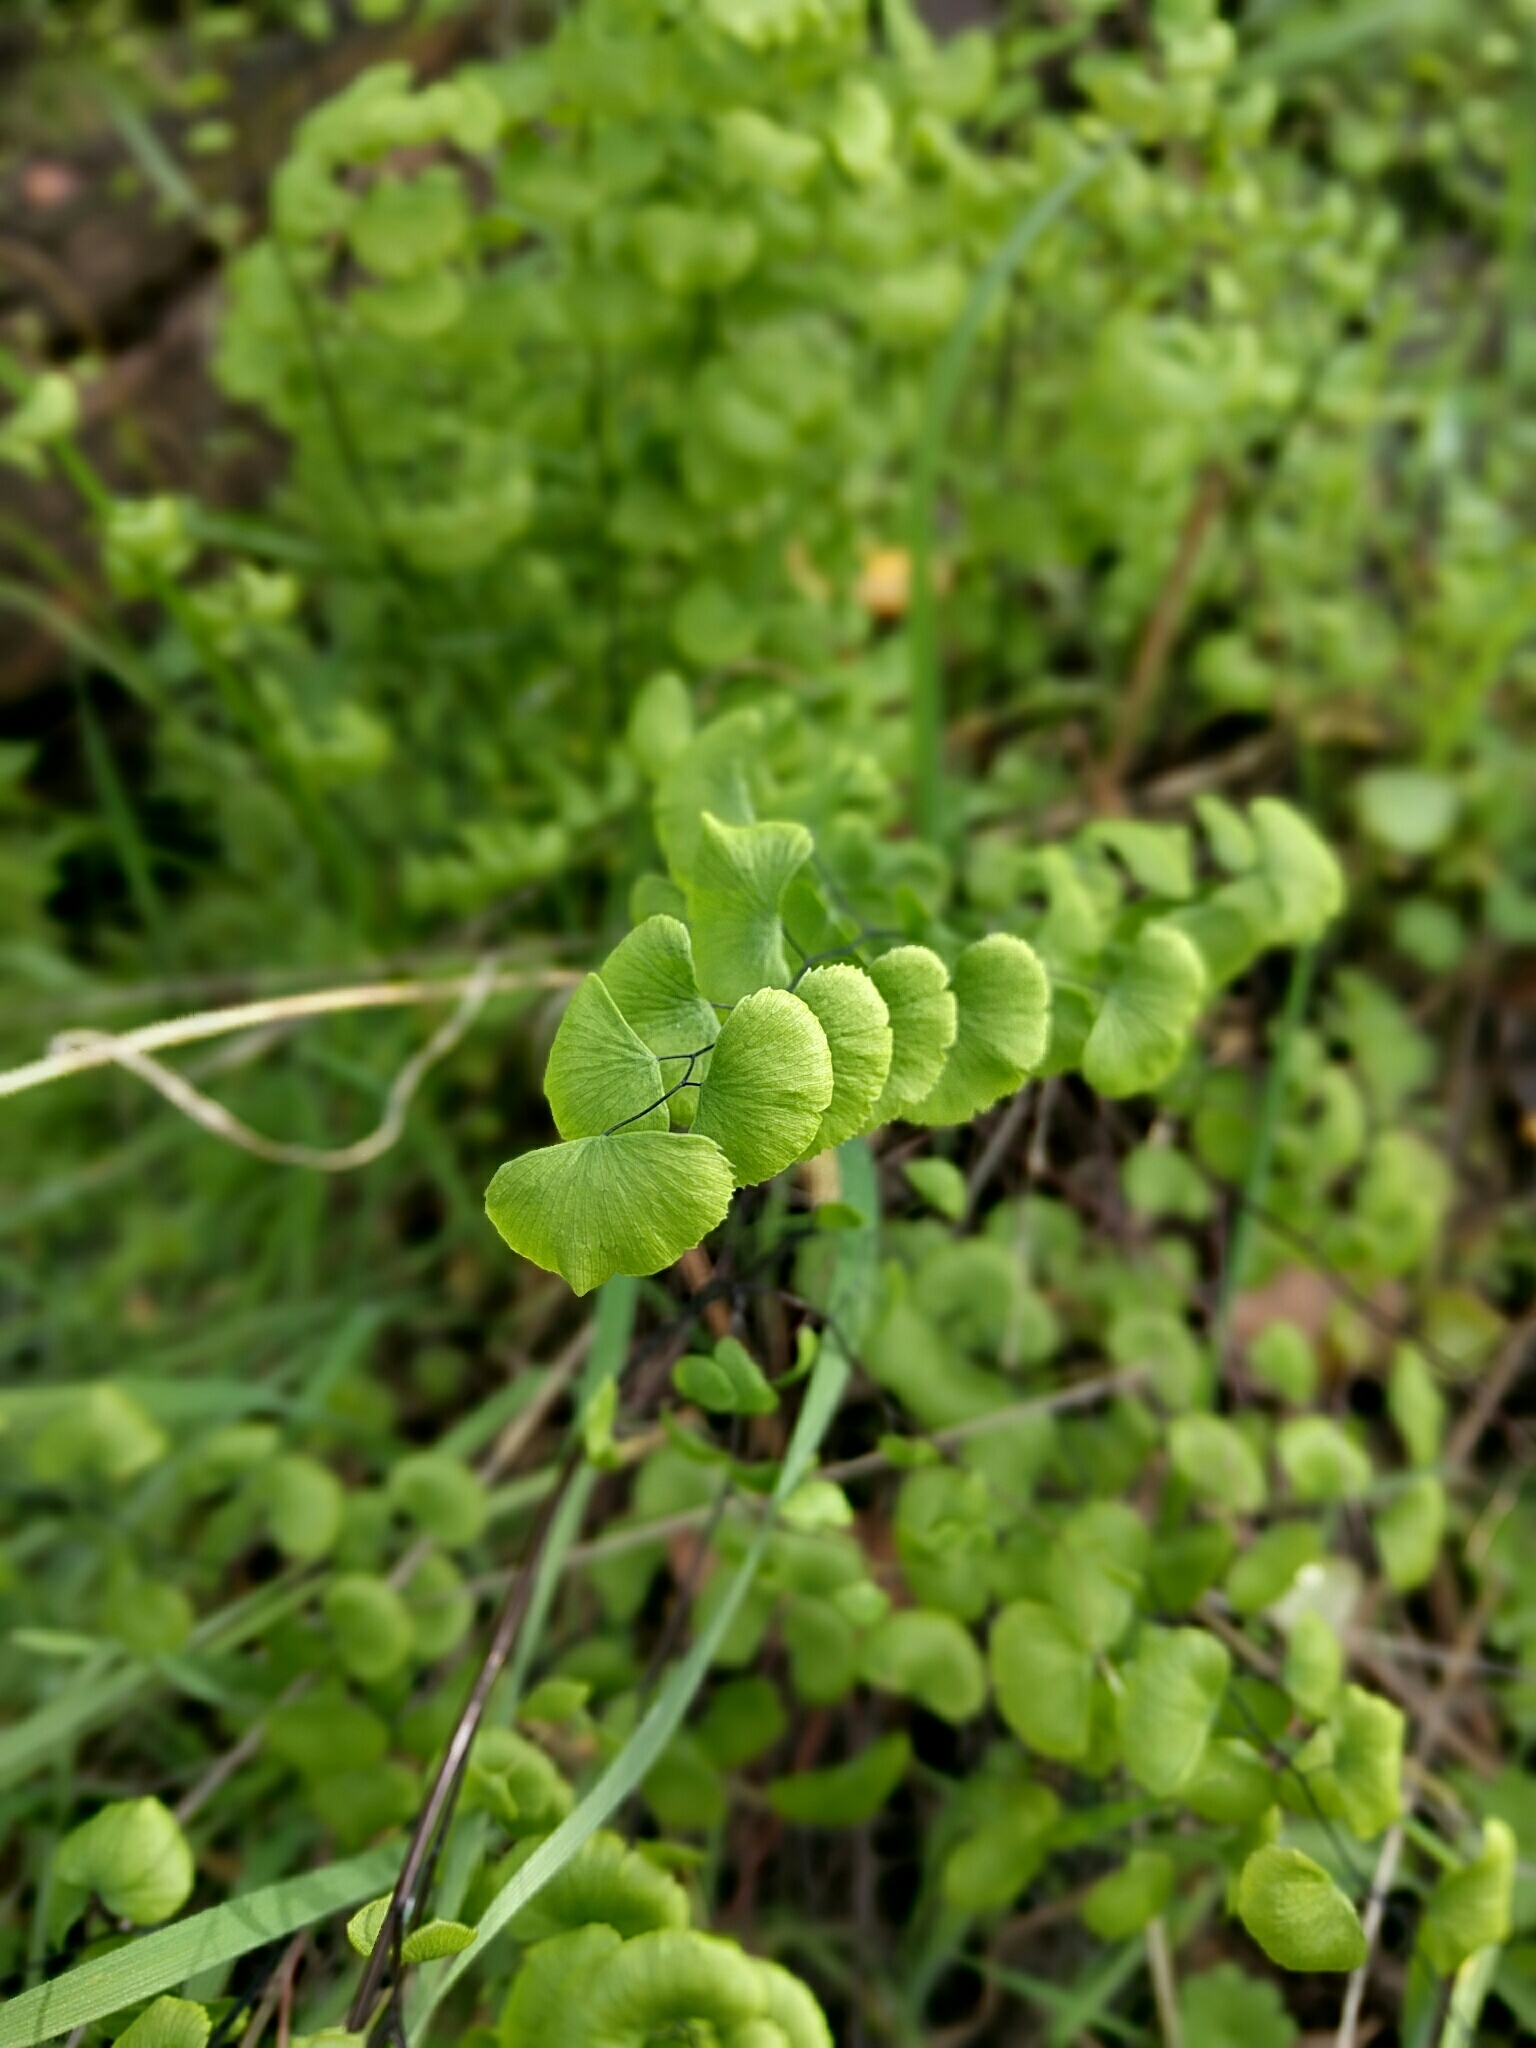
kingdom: Plantae
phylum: Tracheophyta
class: Polypodiopsida
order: Polypodiales
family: Pteridaceae
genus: Adiantum
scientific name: Adiantum jordanii
